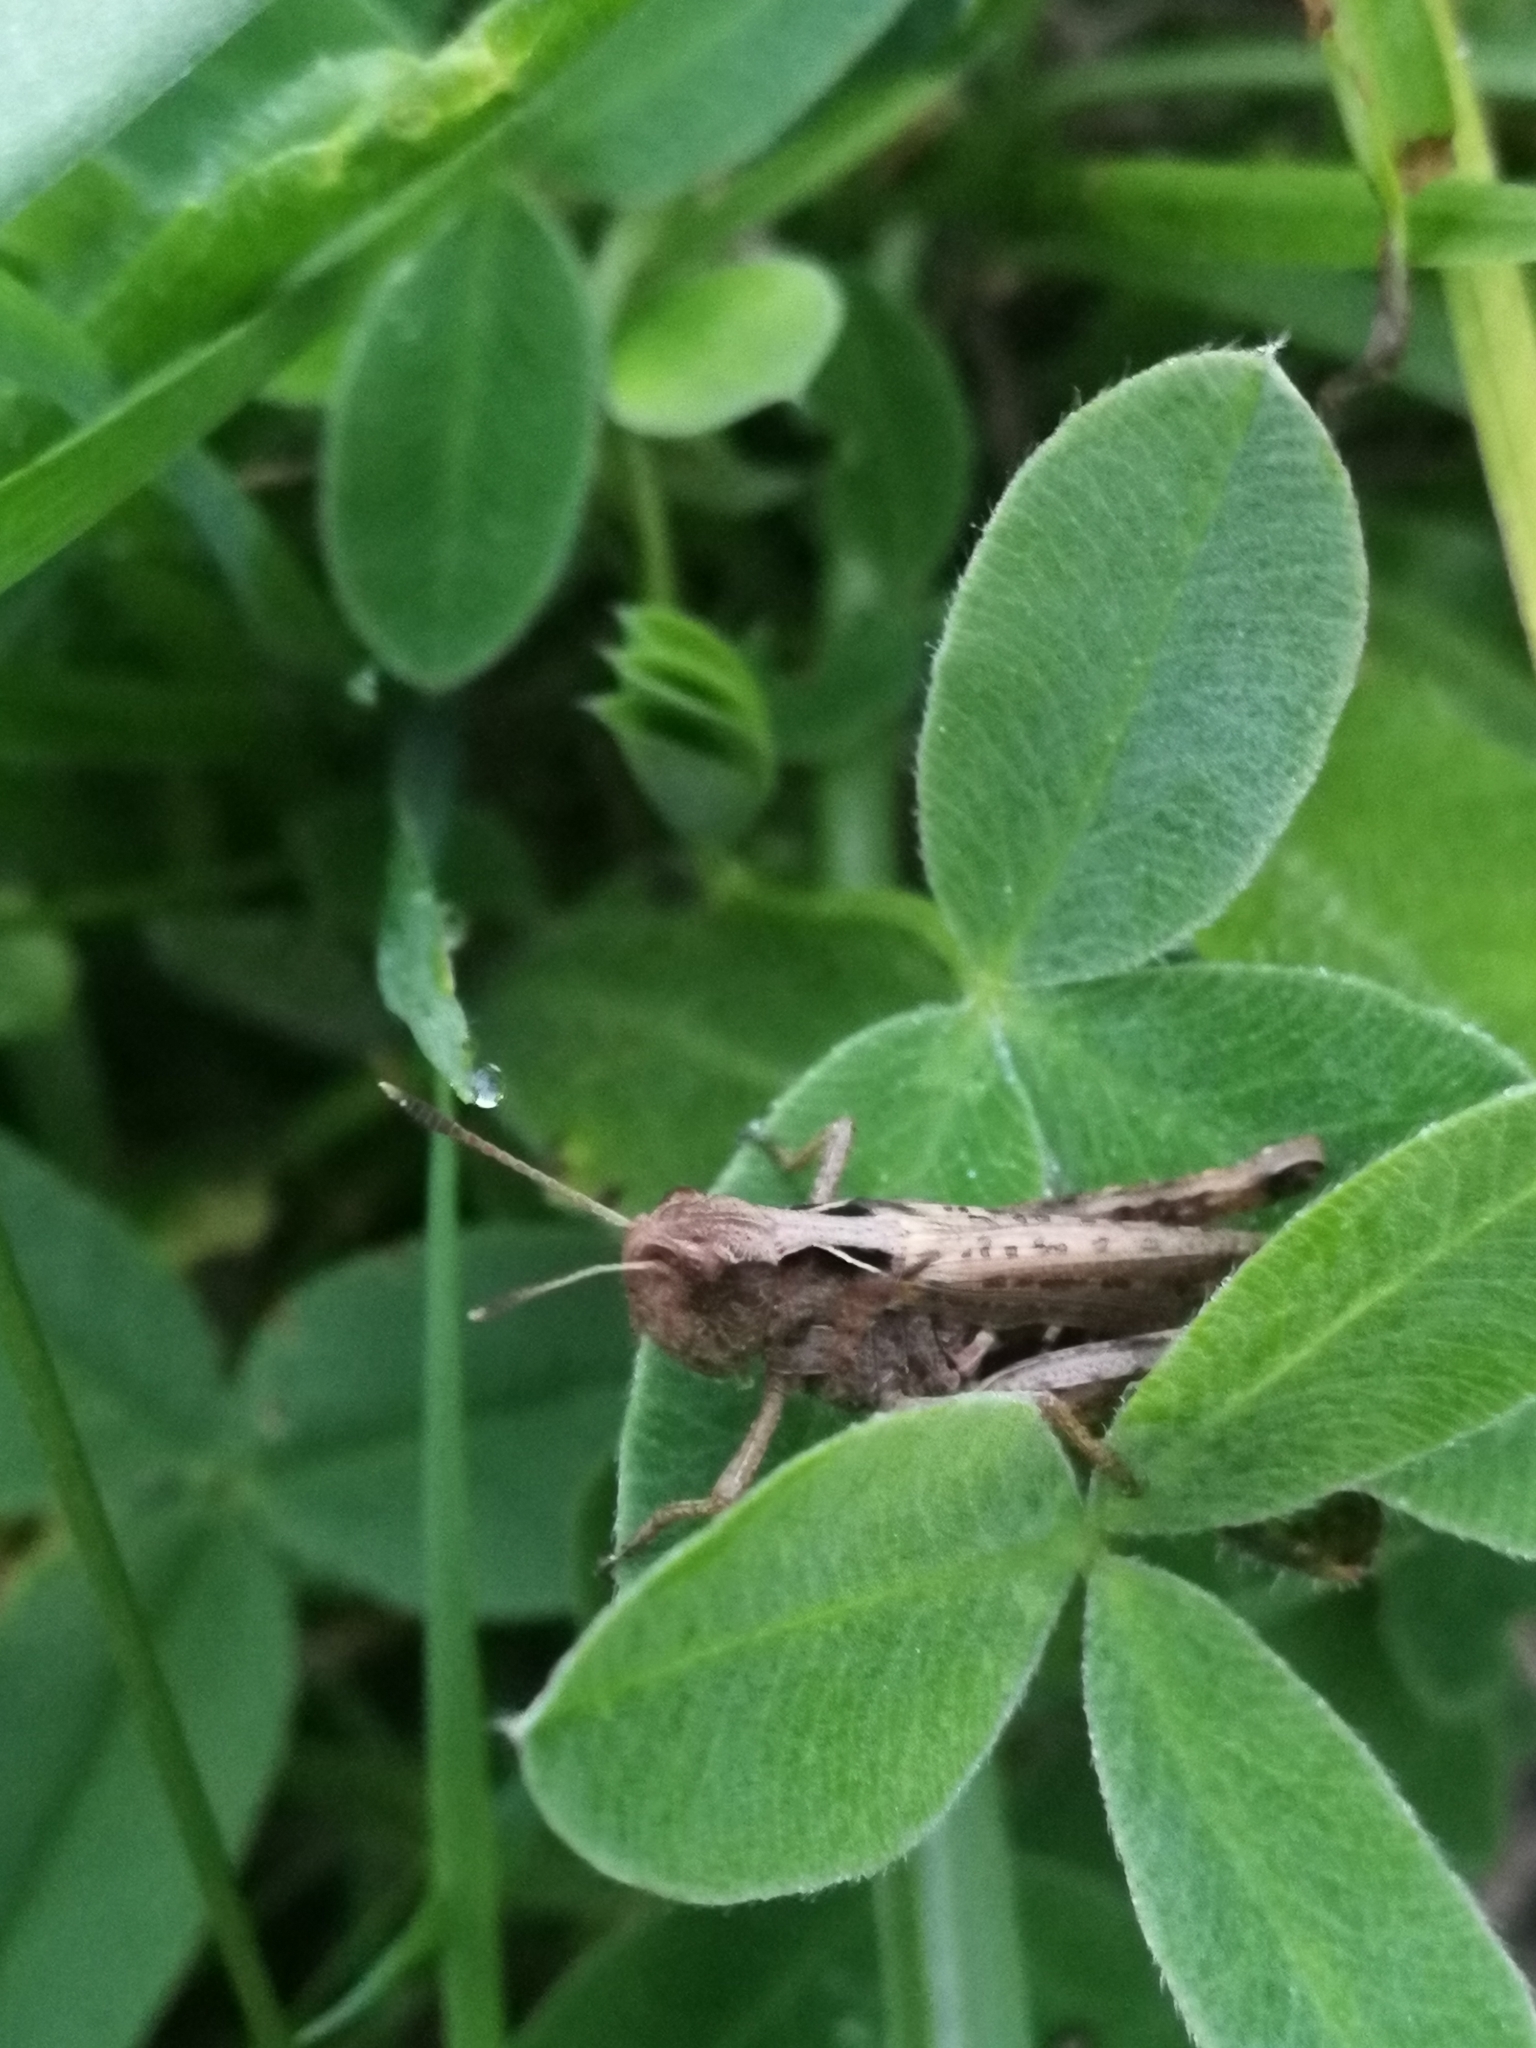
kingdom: Animalia
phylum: Arthropoda
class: Insecta
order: Orthoptera
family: Acrididae
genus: Gomphocerippus
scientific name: Gomphocerippus rufus
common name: Rufous grasshopper
